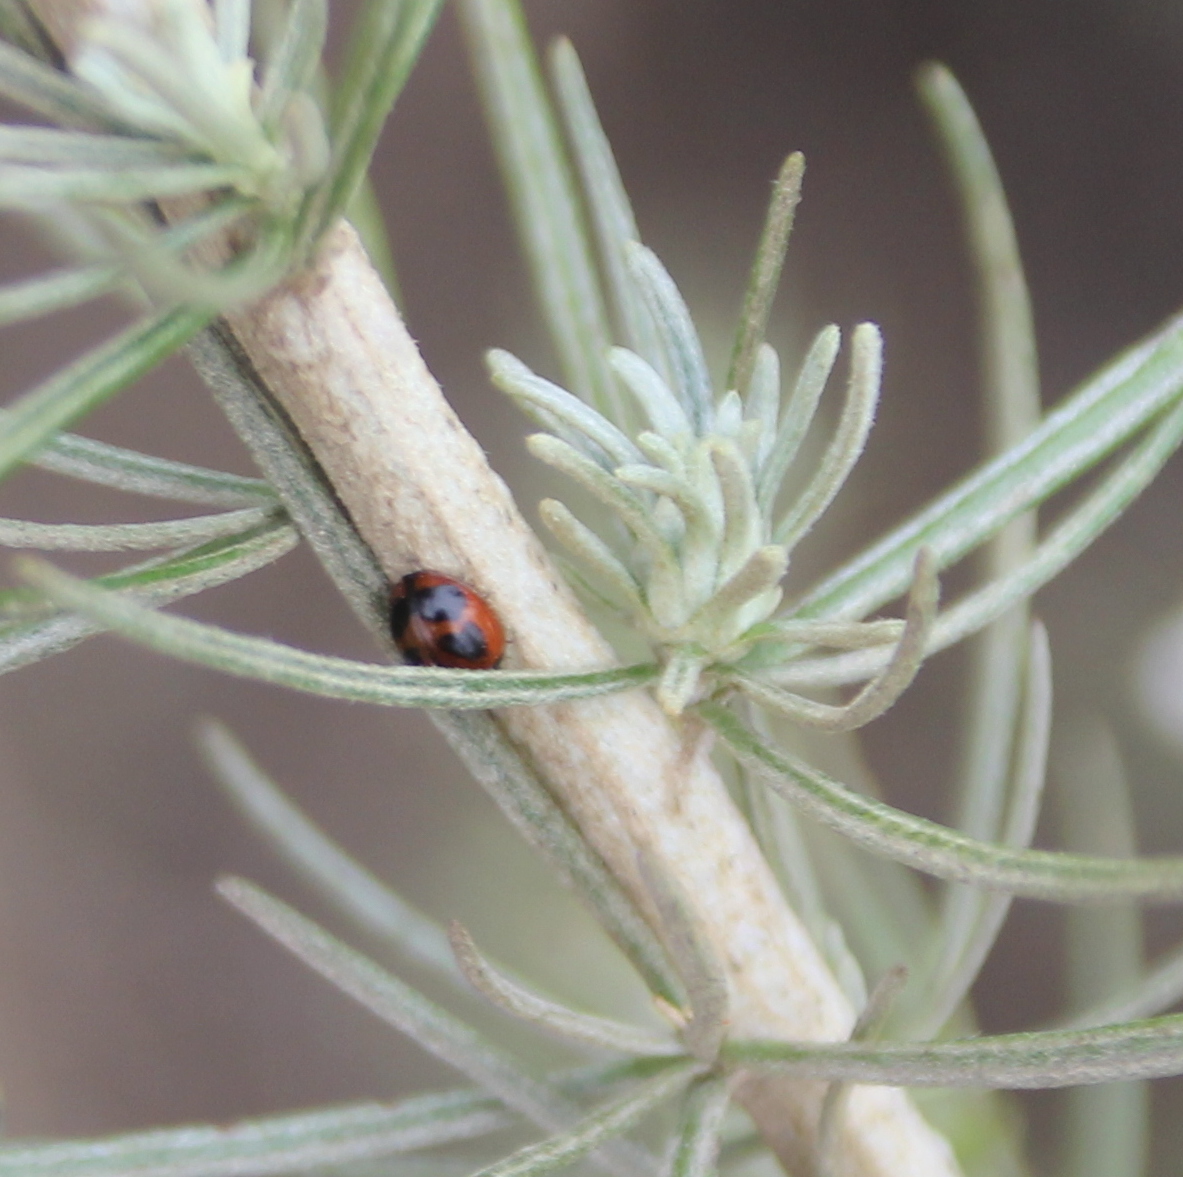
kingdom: Animalia
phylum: Arthropoda
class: Insecta
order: Coleoptera
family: Coccinellidae
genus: Exochomus
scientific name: Exochomus fasciatus
